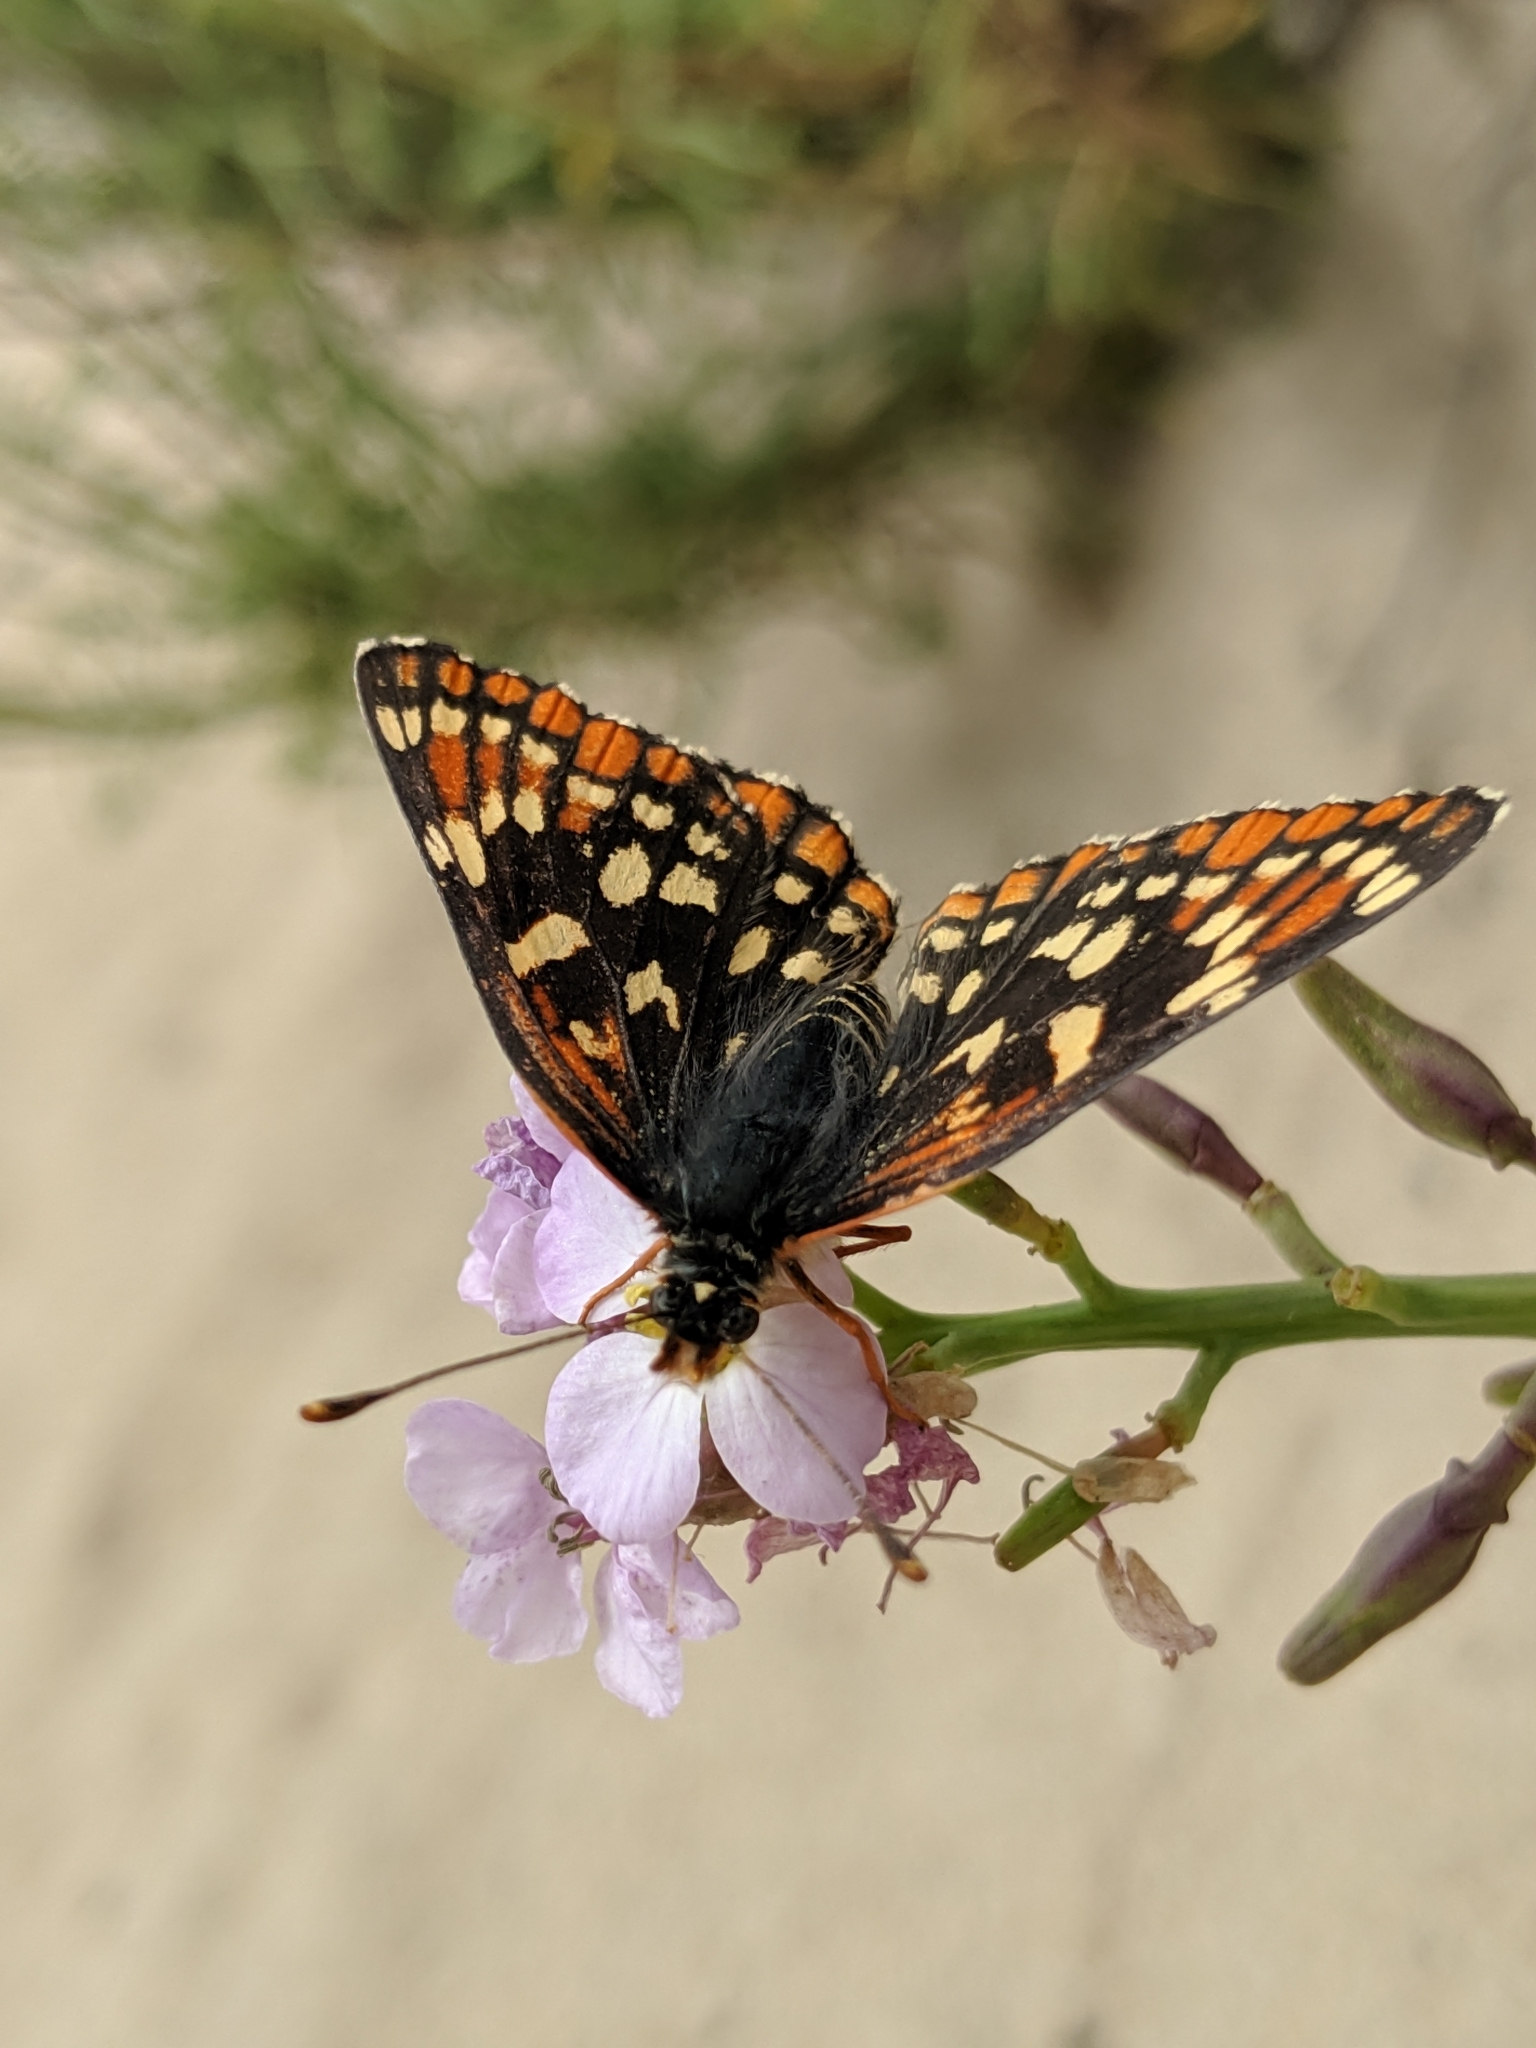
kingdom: Animalia
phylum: Arthropoda
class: Insecta
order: Lepidoptera
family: Nymphalidae
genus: Thessalia
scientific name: Thessalia leanira
